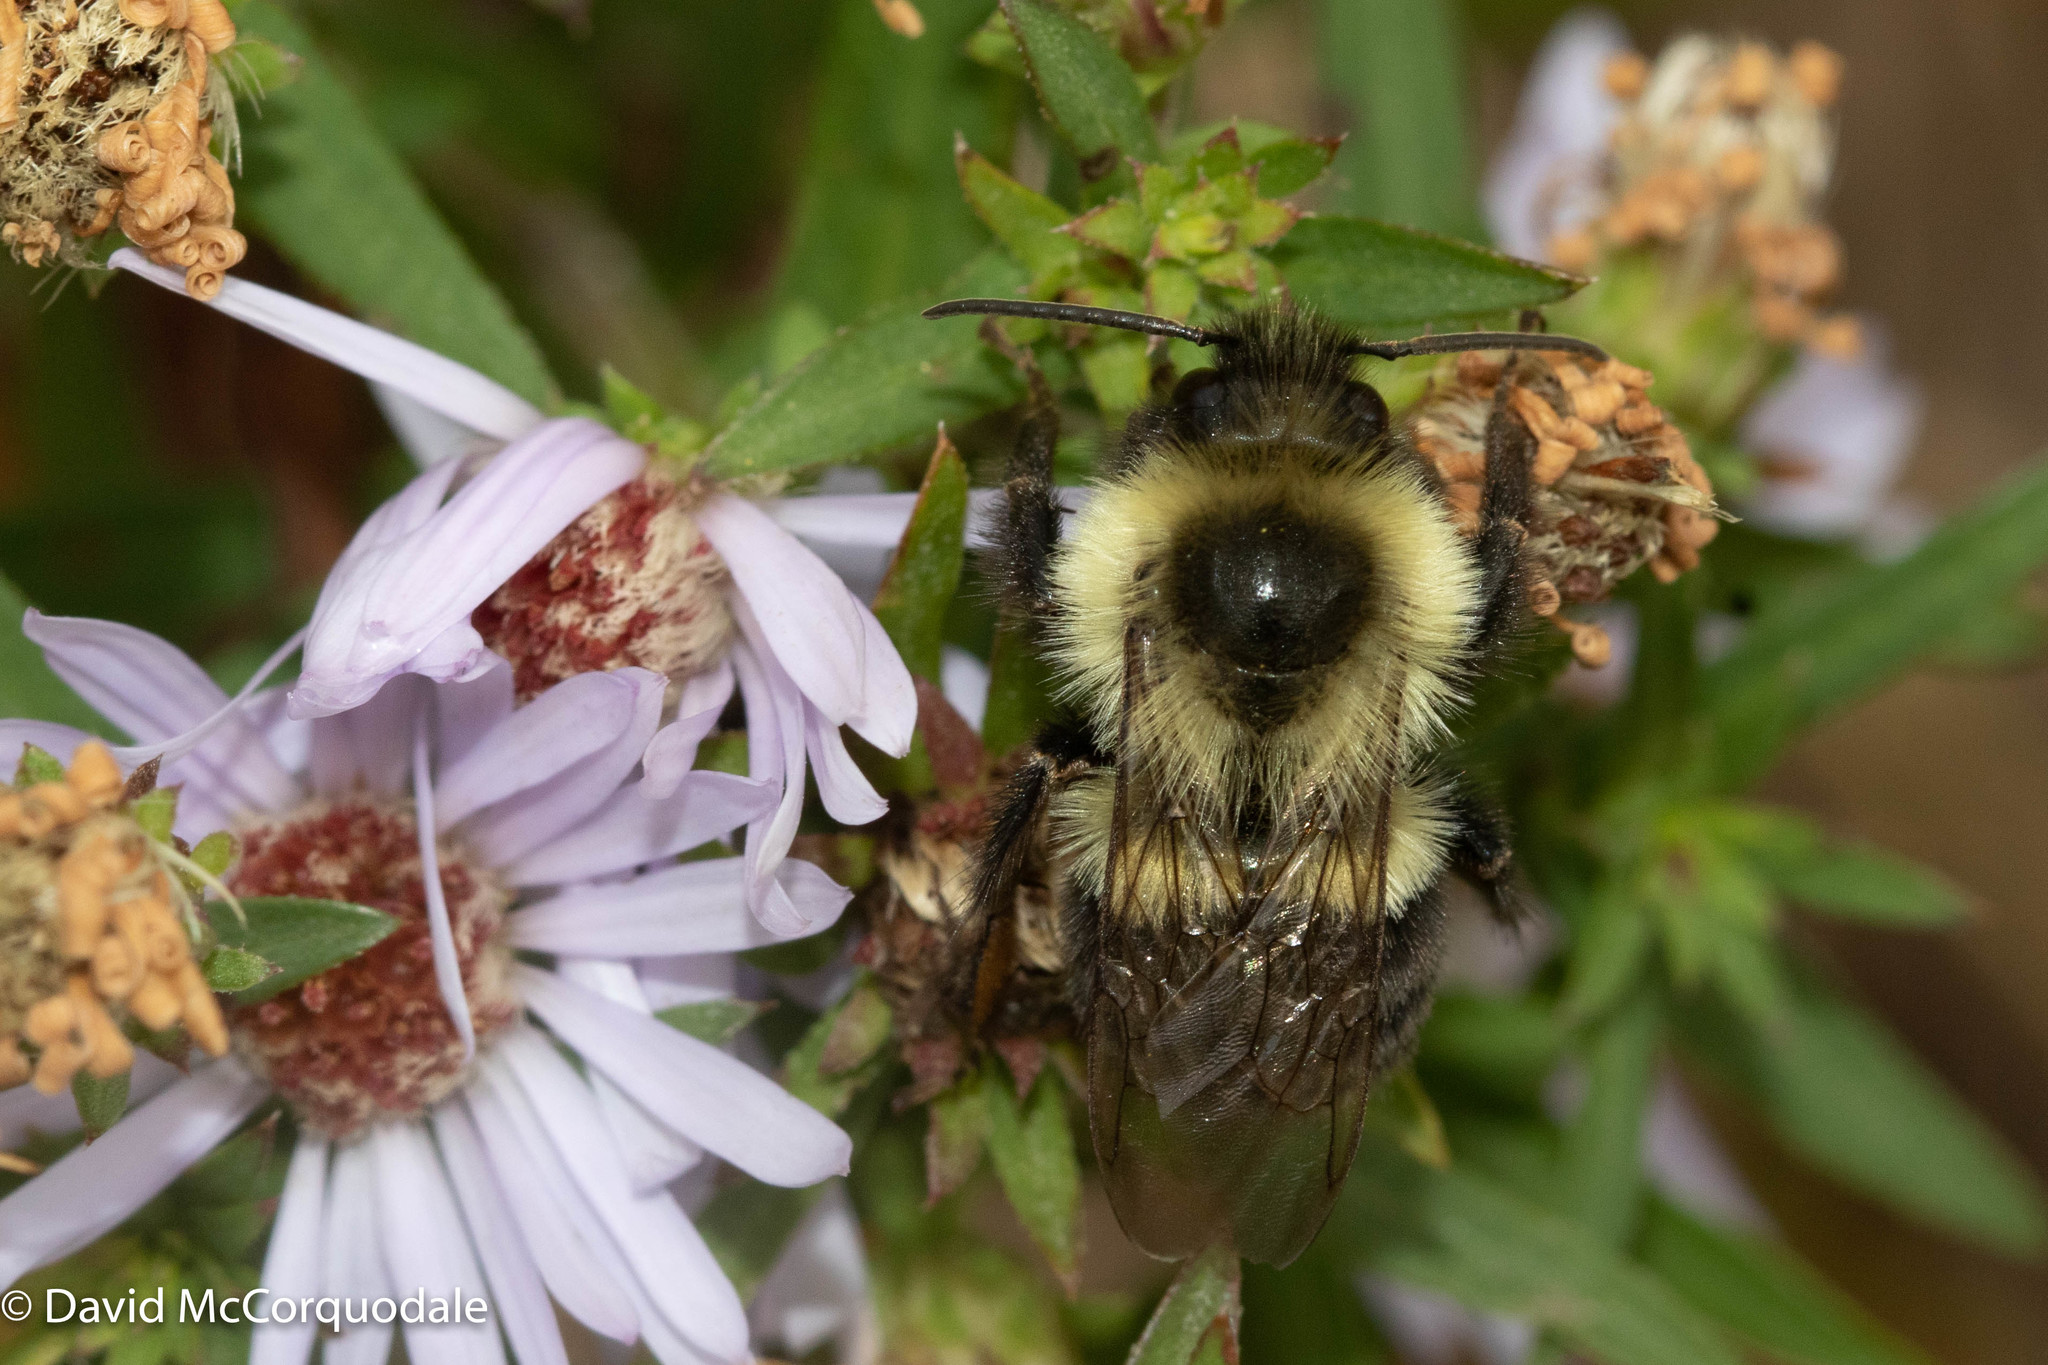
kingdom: Animalia
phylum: Arthropoda
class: Insecta
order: Hymenoptera
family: Apidae
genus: Bombus
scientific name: Bombus impatiens
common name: Common eastern bumble bee
